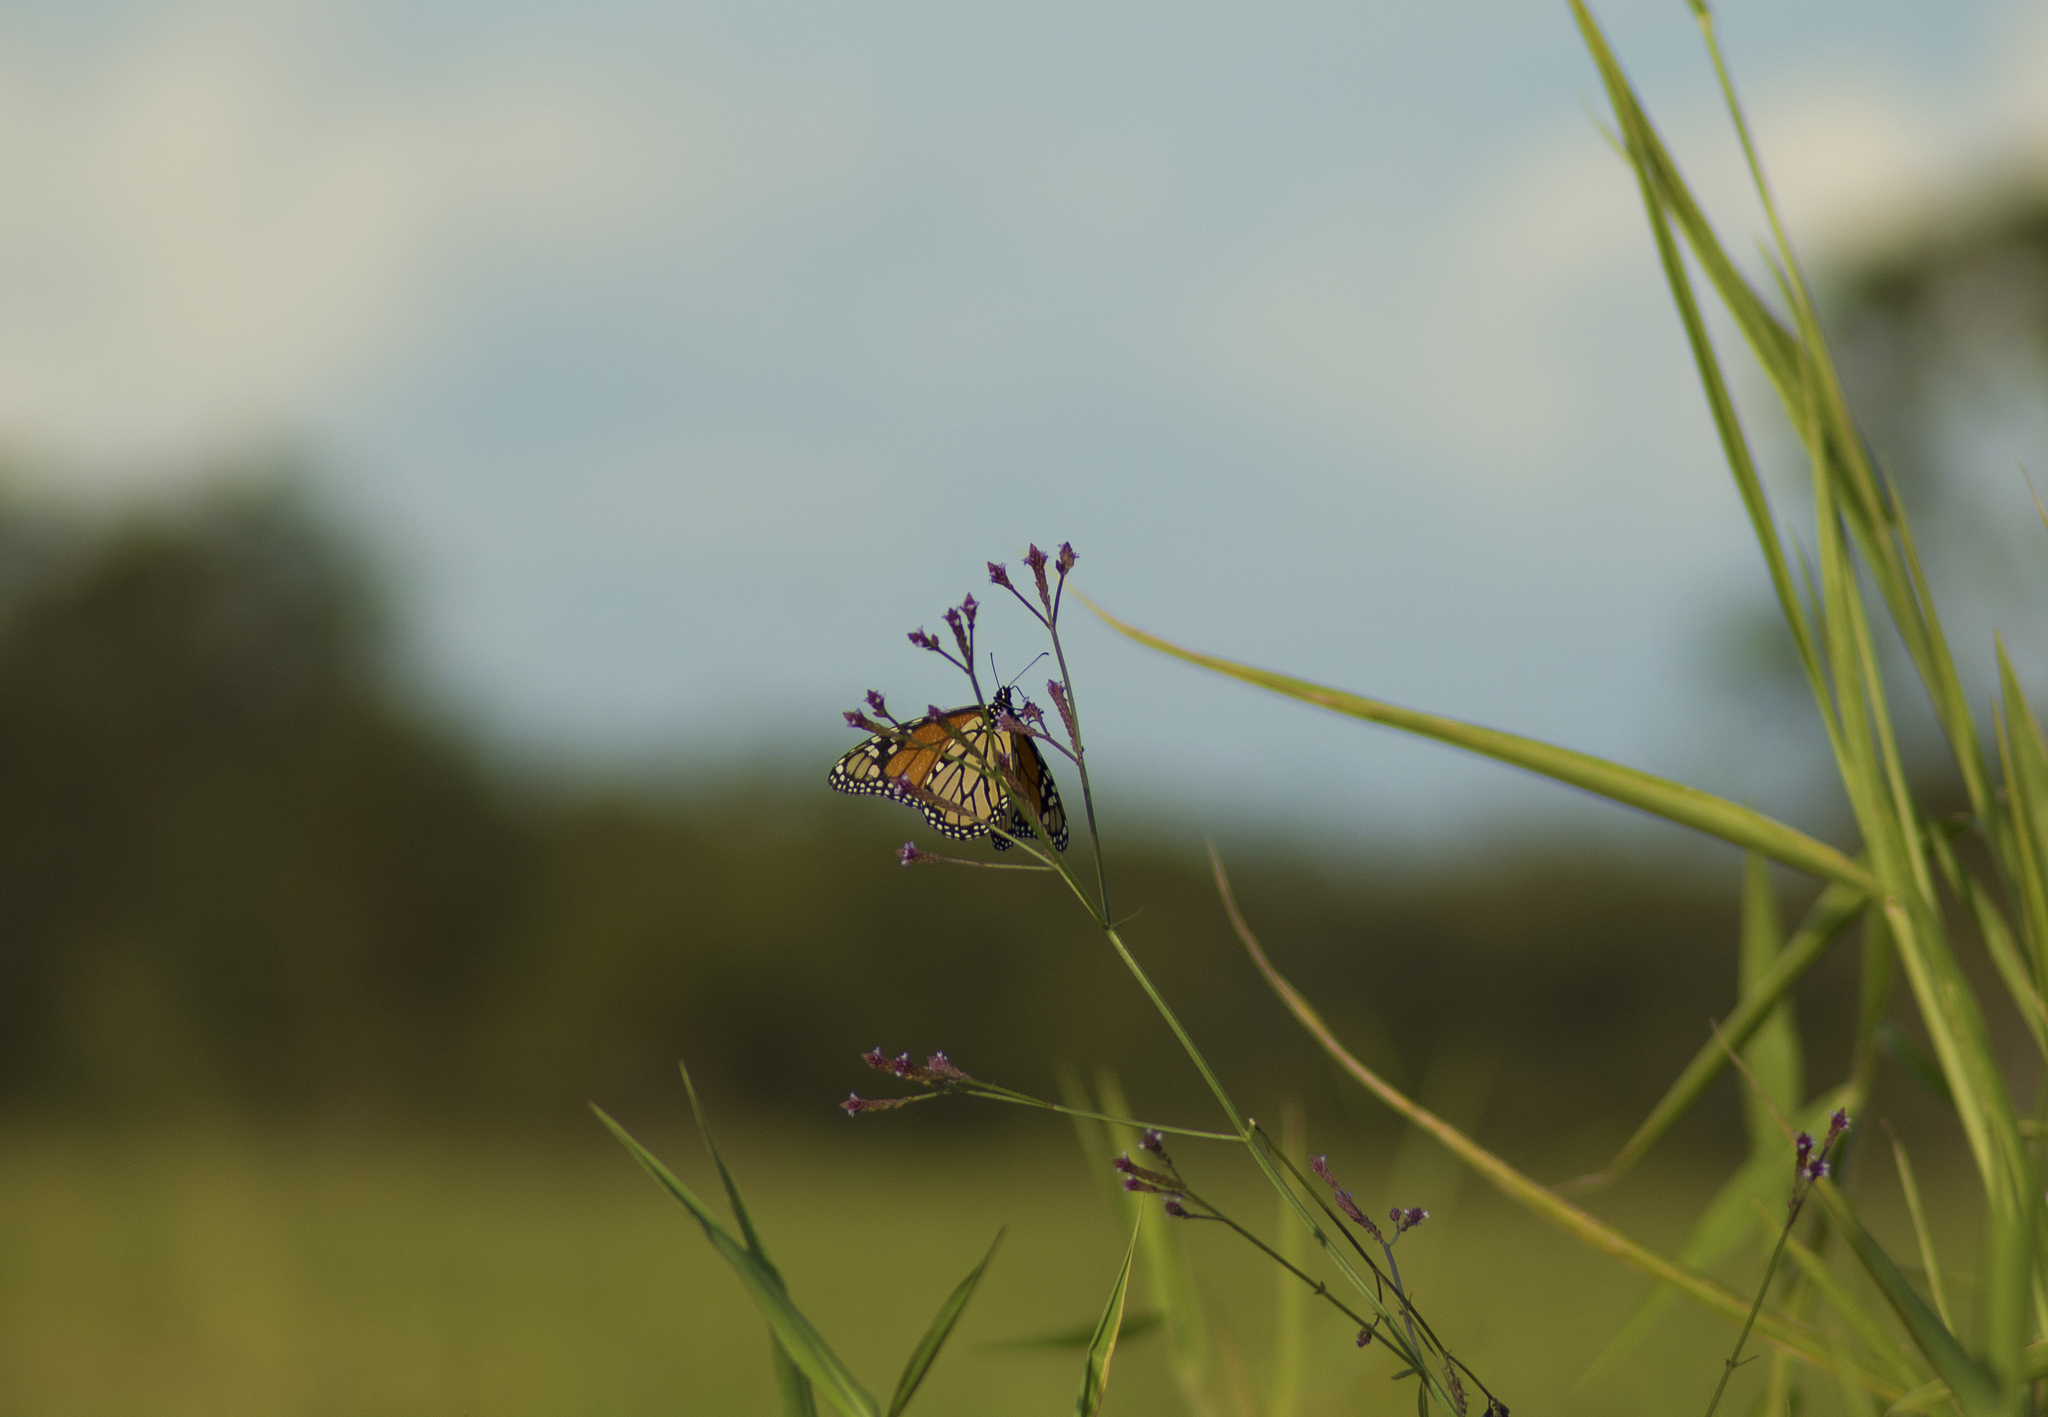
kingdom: Animalia
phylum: Arthropoda
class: Insecta
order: Lepidoptera
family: Nymphalidae
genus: Danaus
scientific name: Danaus plexippus
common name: Monarch
